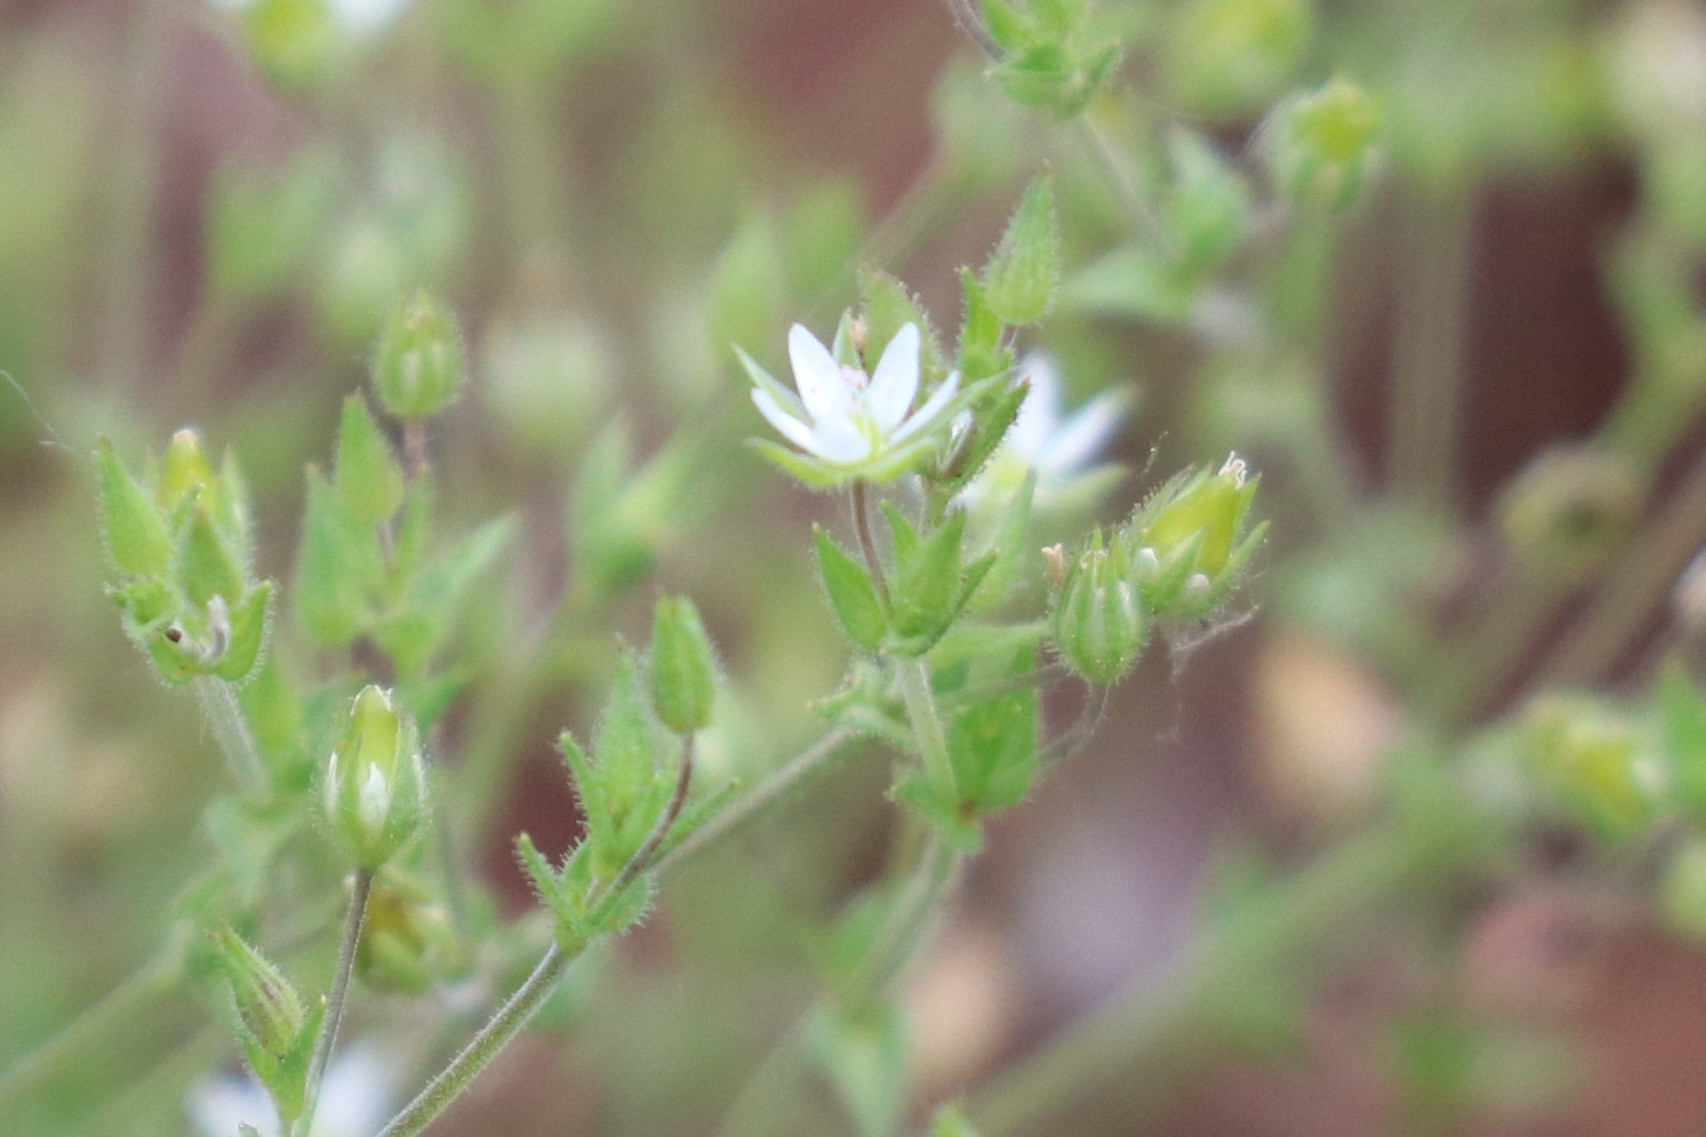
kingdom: Plantae
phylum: Tracheophyta
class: Magnoliopsida
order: Caryophyllales
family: Caryophyllaceae
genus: Arenaria
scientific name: Arenaria serpyllifolia
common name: Thyme-leaved sandwort
